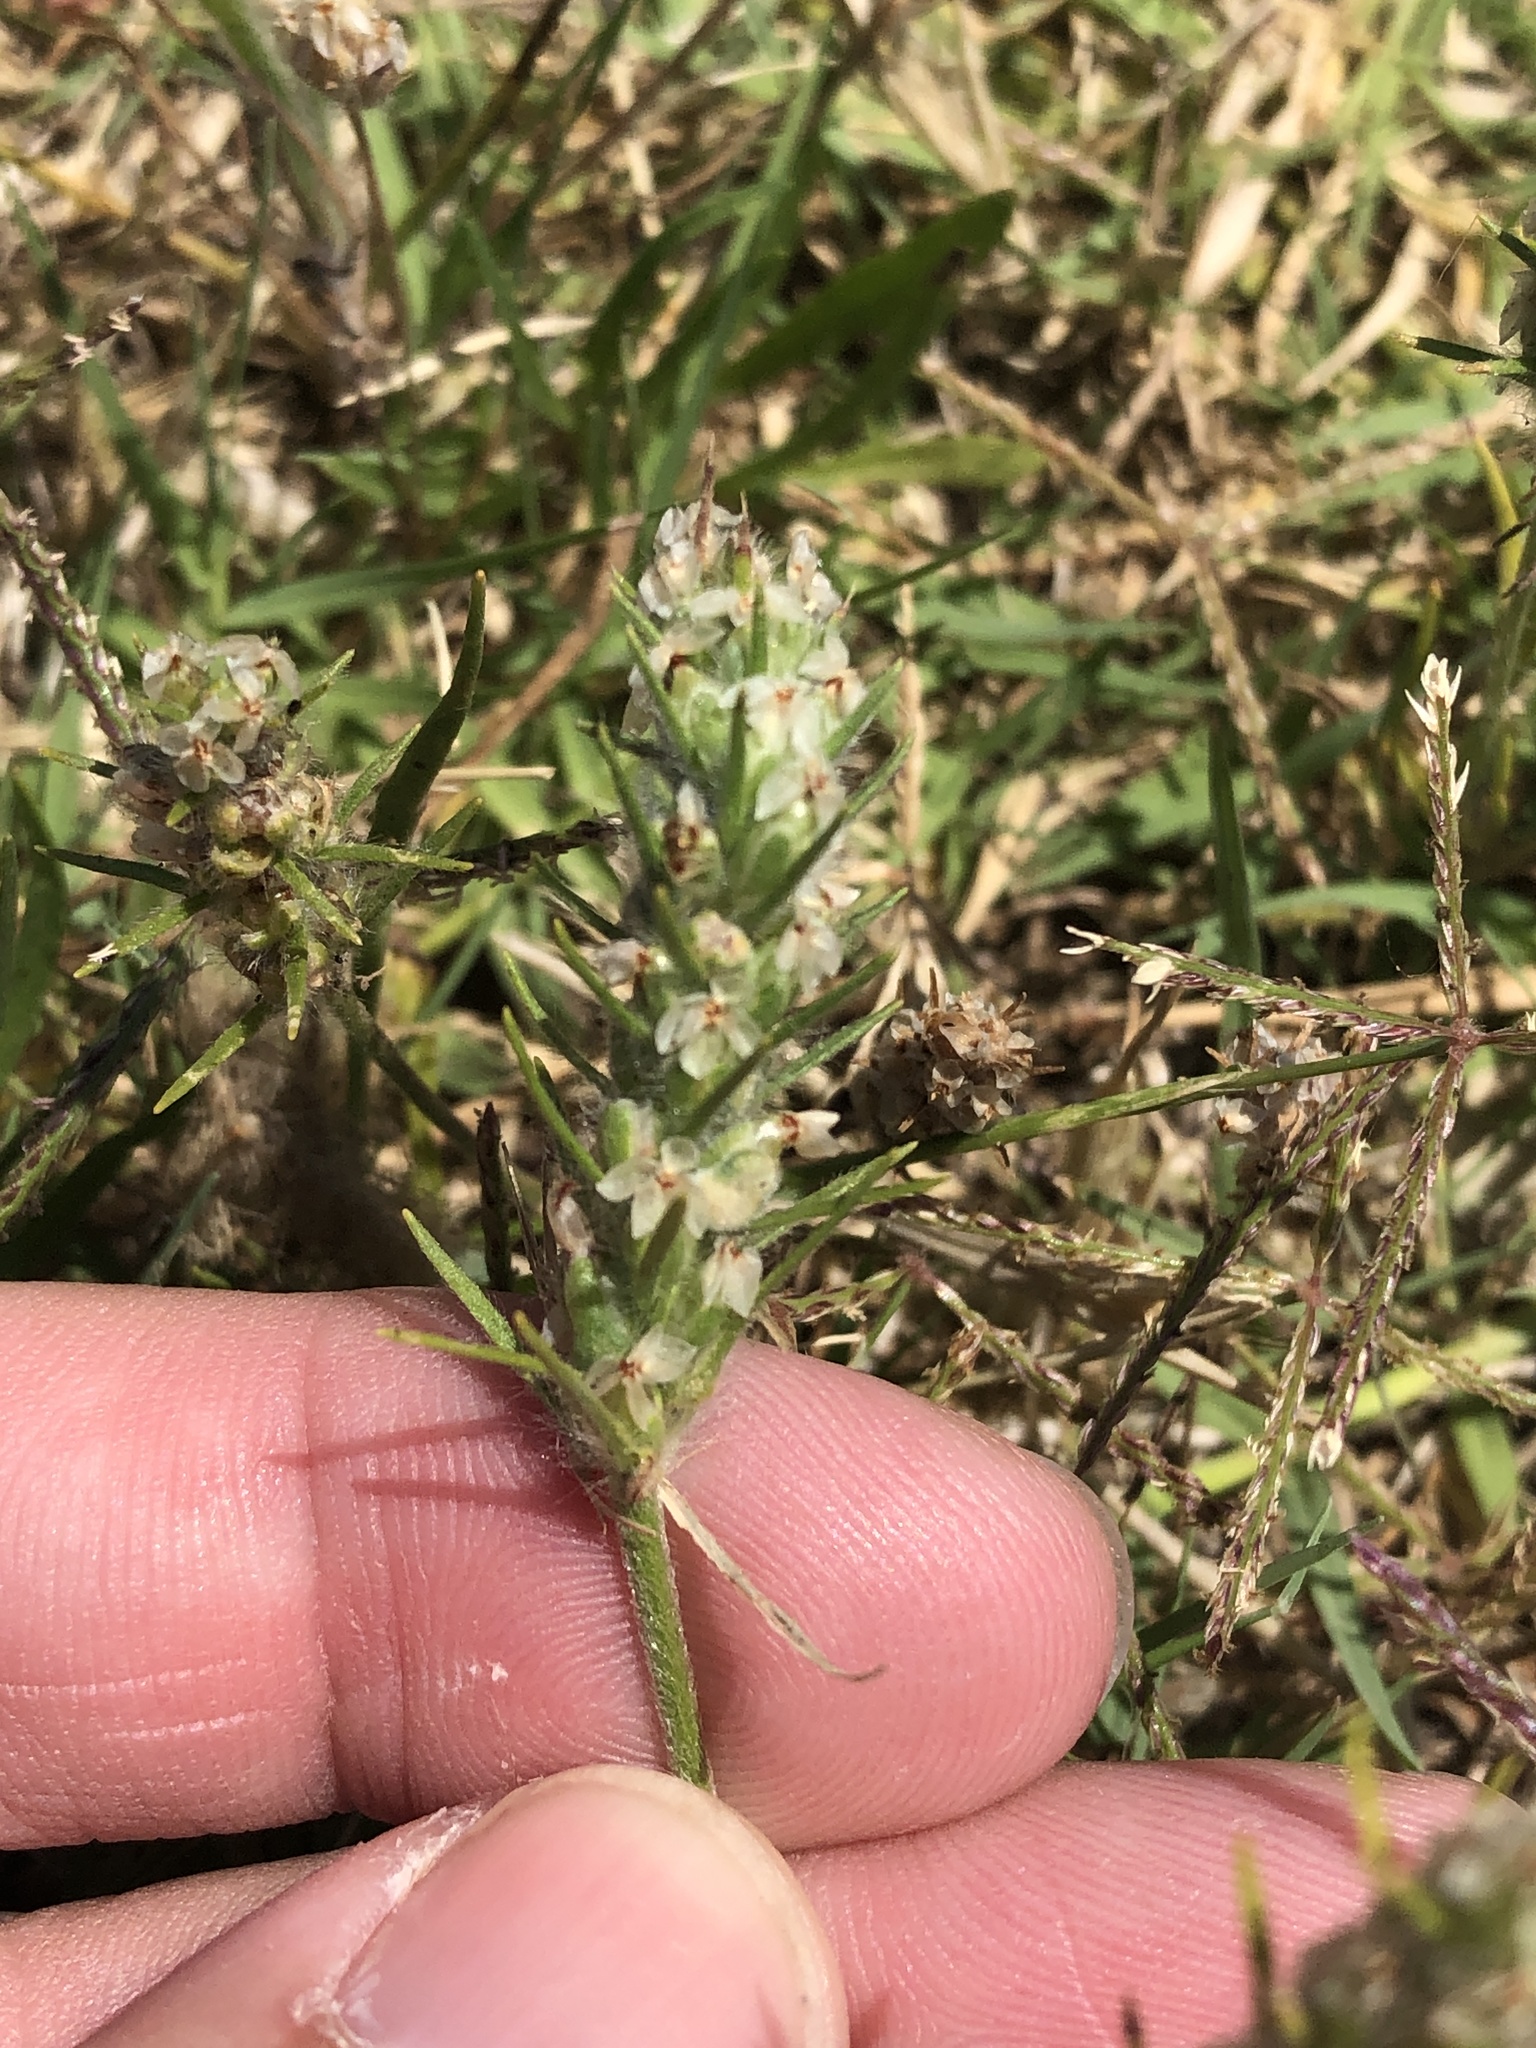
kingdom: Plantae
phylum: Tracheophyta
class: Magnoliopsida
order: Lamiales
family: Plantaginaceae
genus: Plantago
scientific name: Plantago aristata
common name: Bracted plantain
